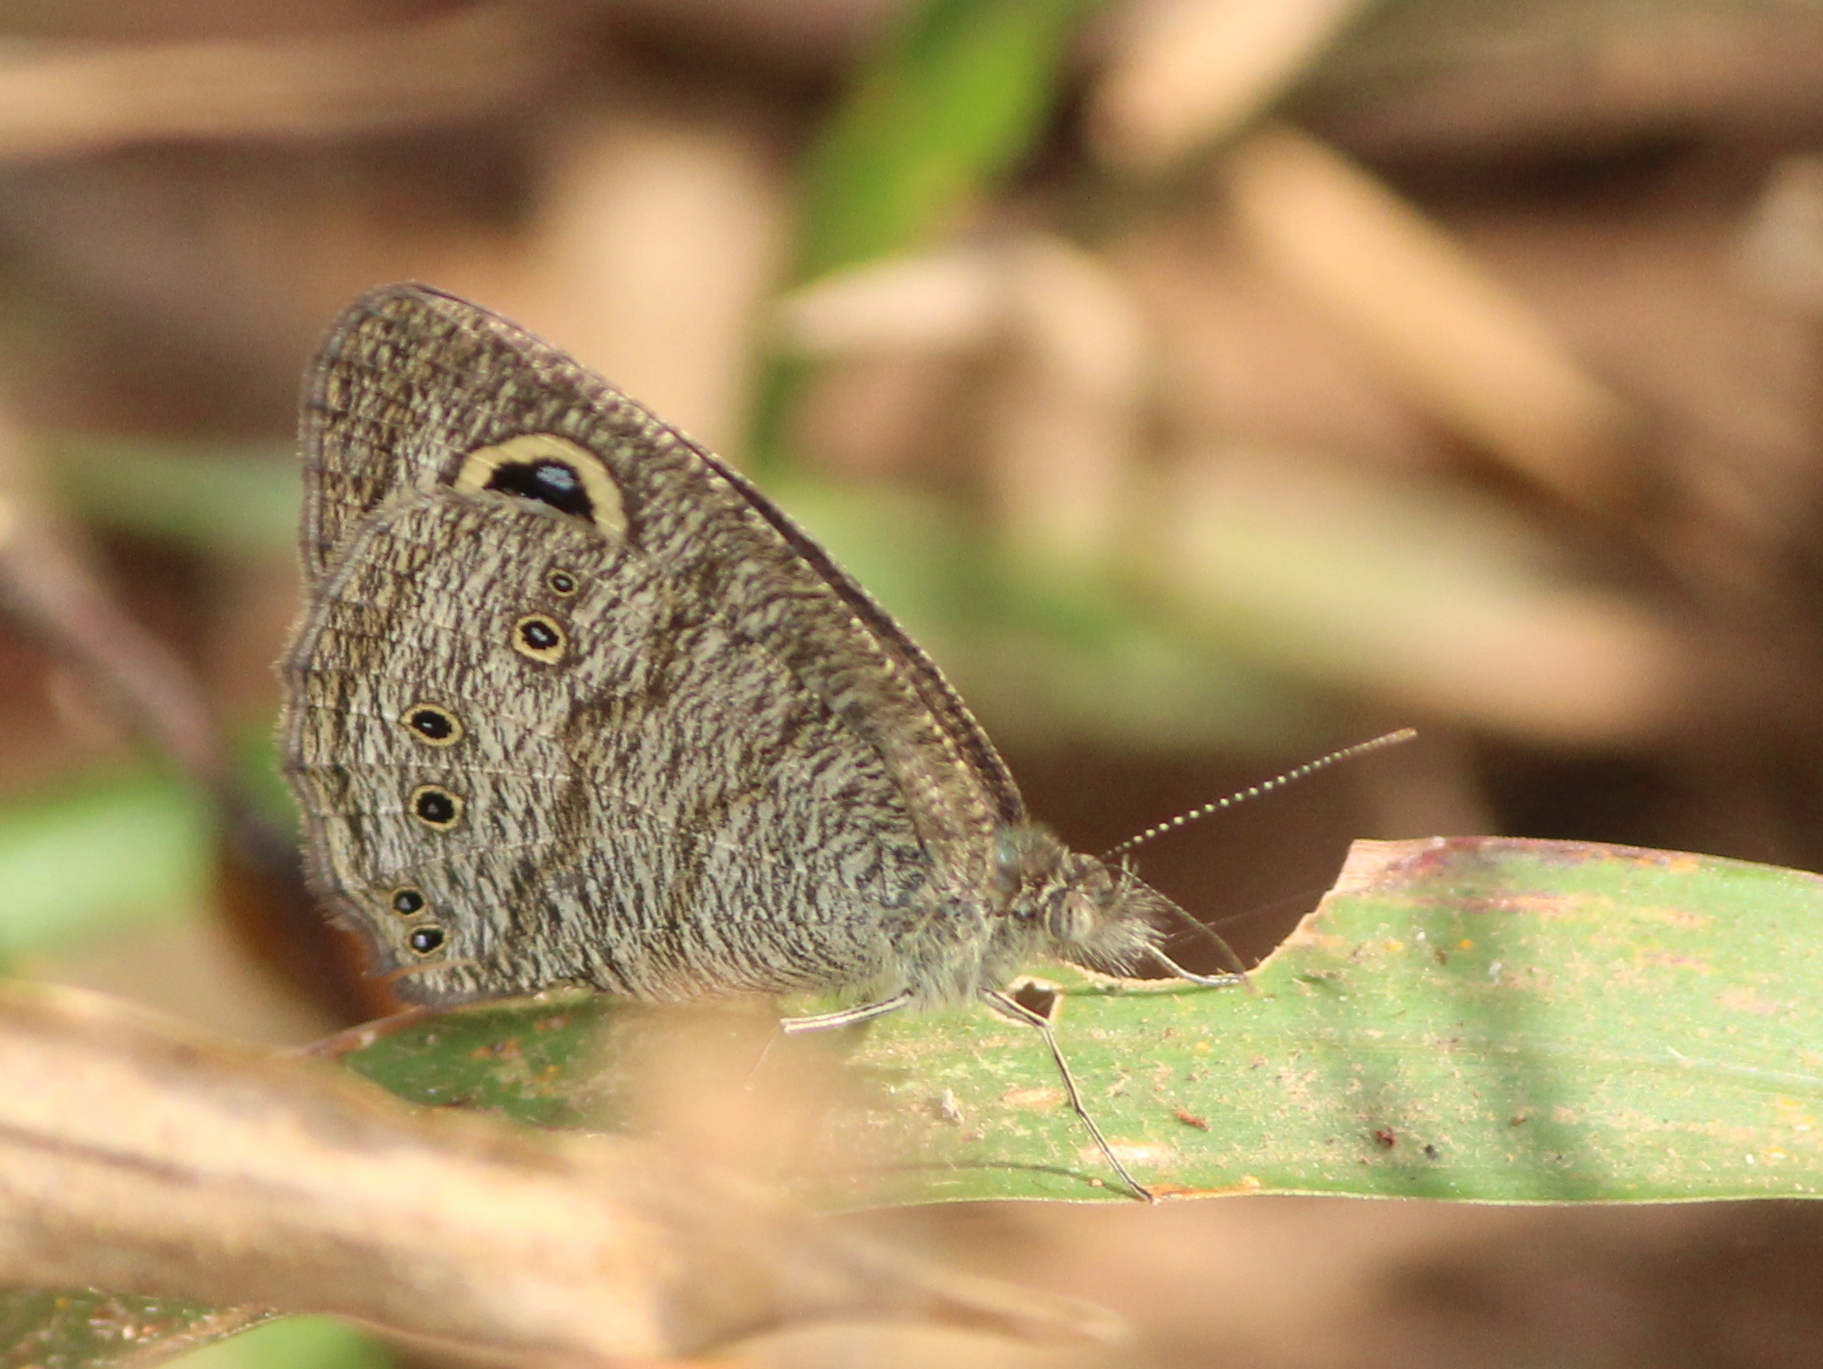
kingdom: Animalia
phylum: Arthropoda
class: Insecta
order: Lepidoptera
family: Nymphalidae
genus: Ypthima
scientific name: Ypthima baldus
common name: Common five-ring
